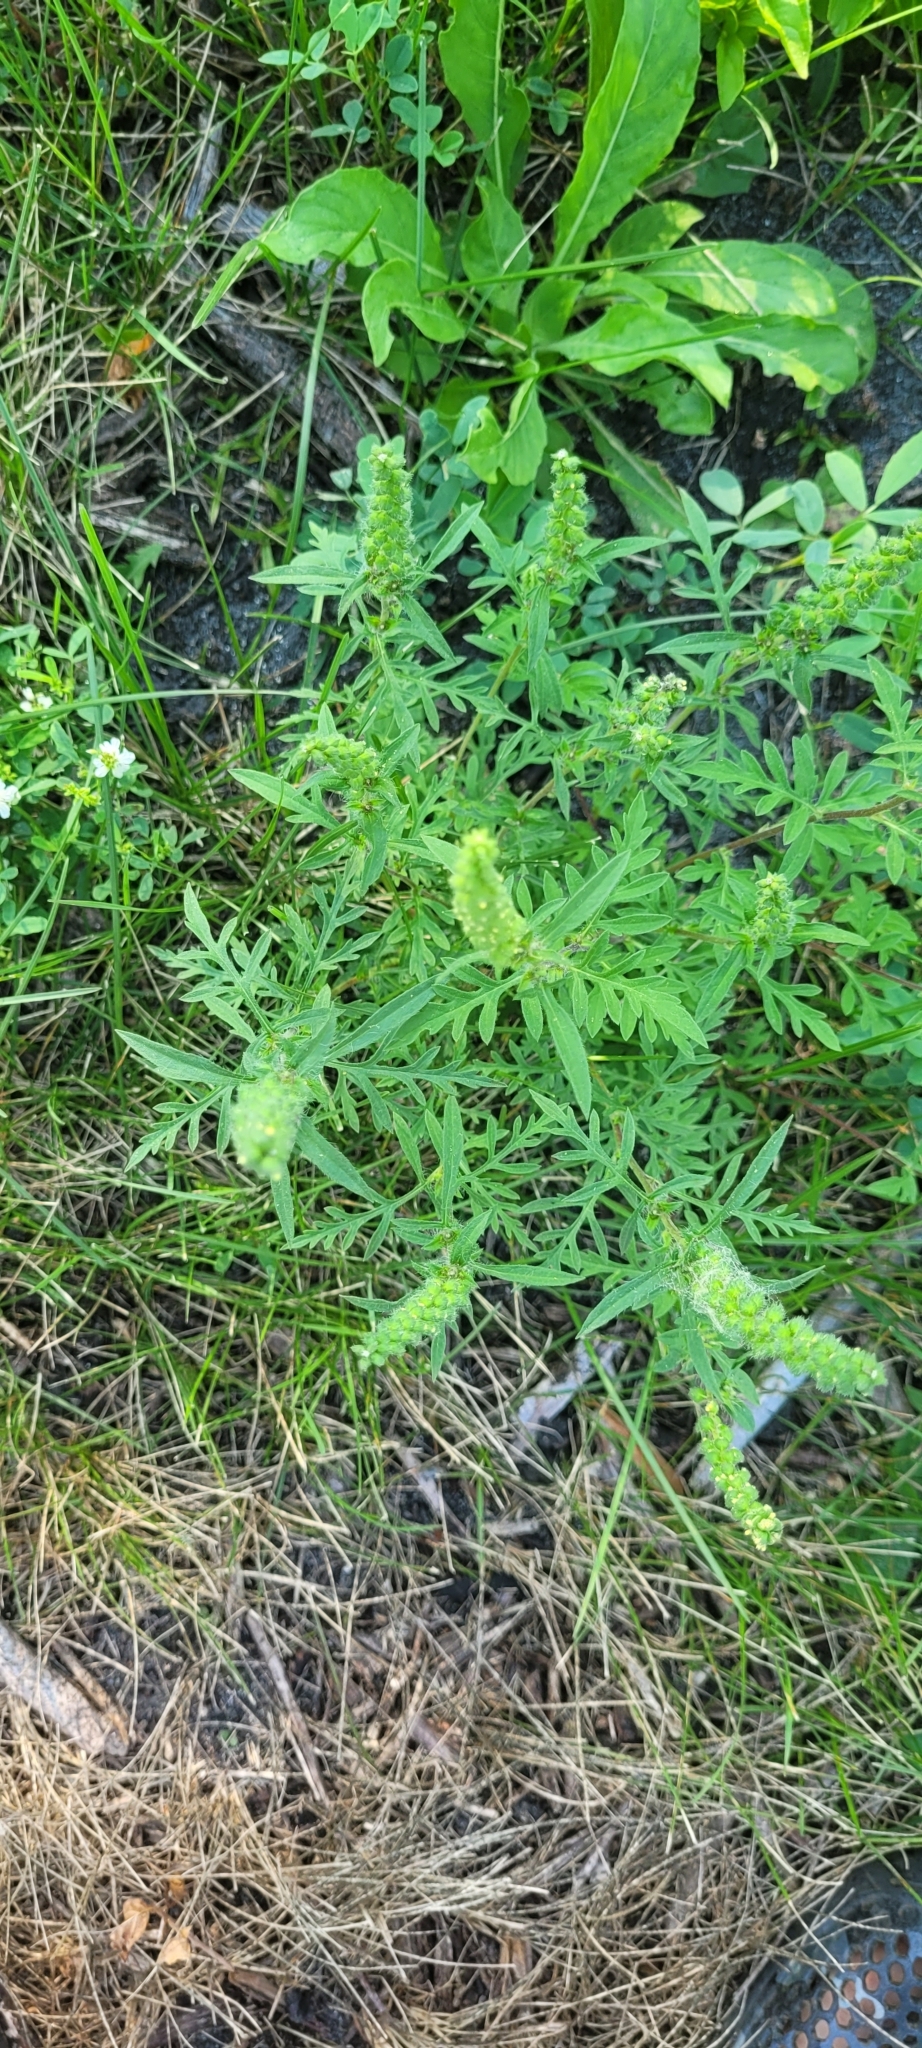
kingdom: Plantae
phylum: Tracheophyta
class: Magnoliopsida
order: Asterales
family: Asteraceae
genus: Ambrosia
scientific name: Ambrosia artemisiifolia
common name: Annual ragweed
